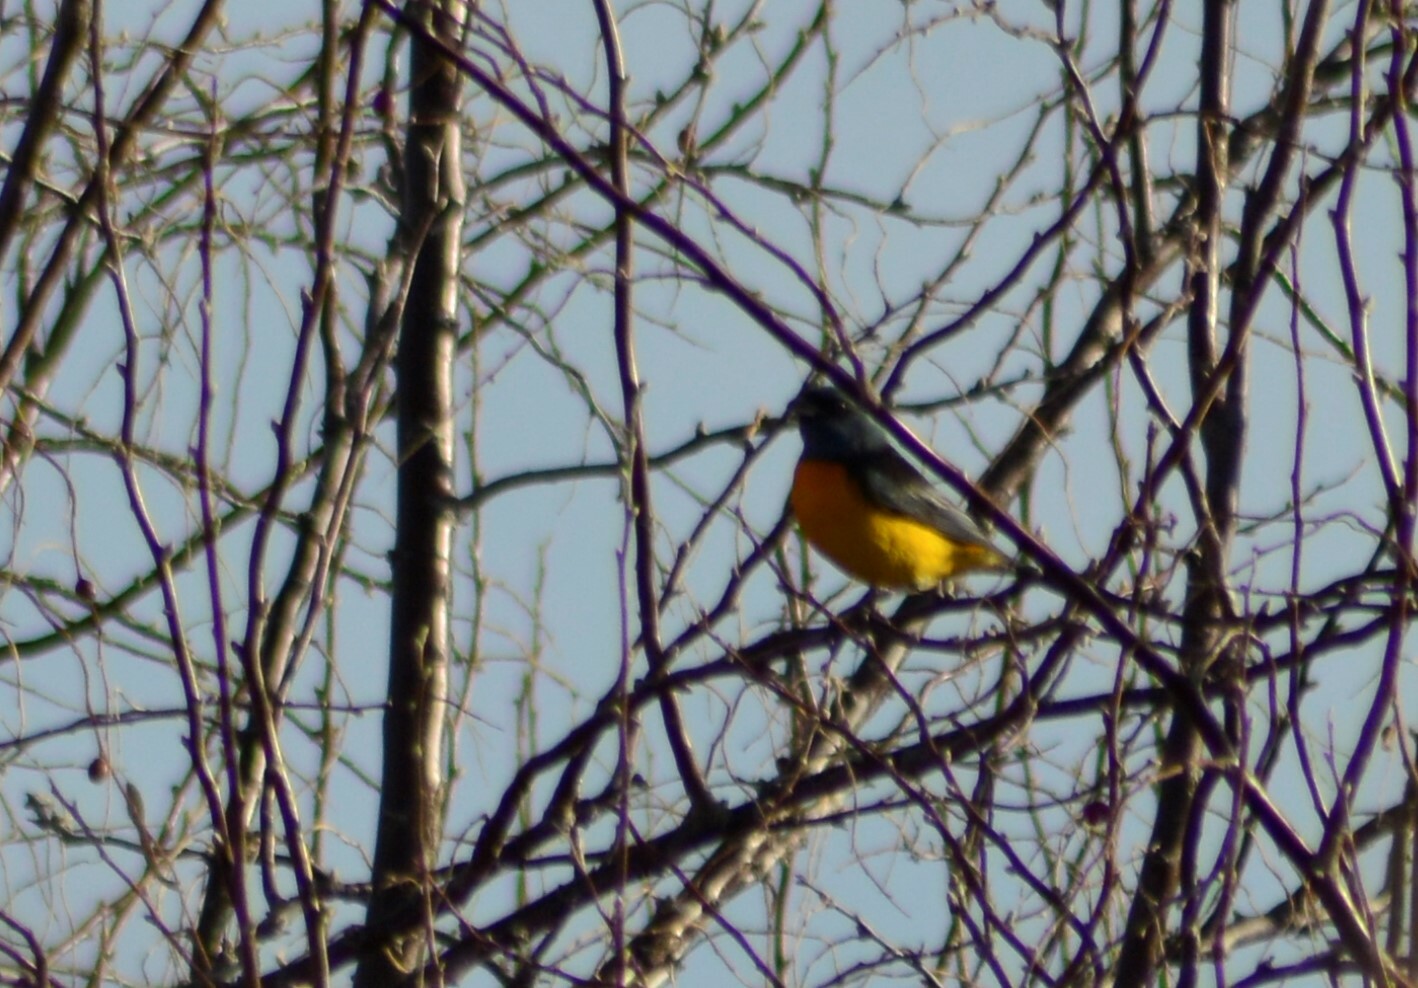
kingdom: Animalia
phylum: Chordata
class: Aves
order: Passeriformes
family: Thraupidae
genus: Rauenia
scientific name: Rauenia bonariensis
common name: Blue-and-yellow tanager
